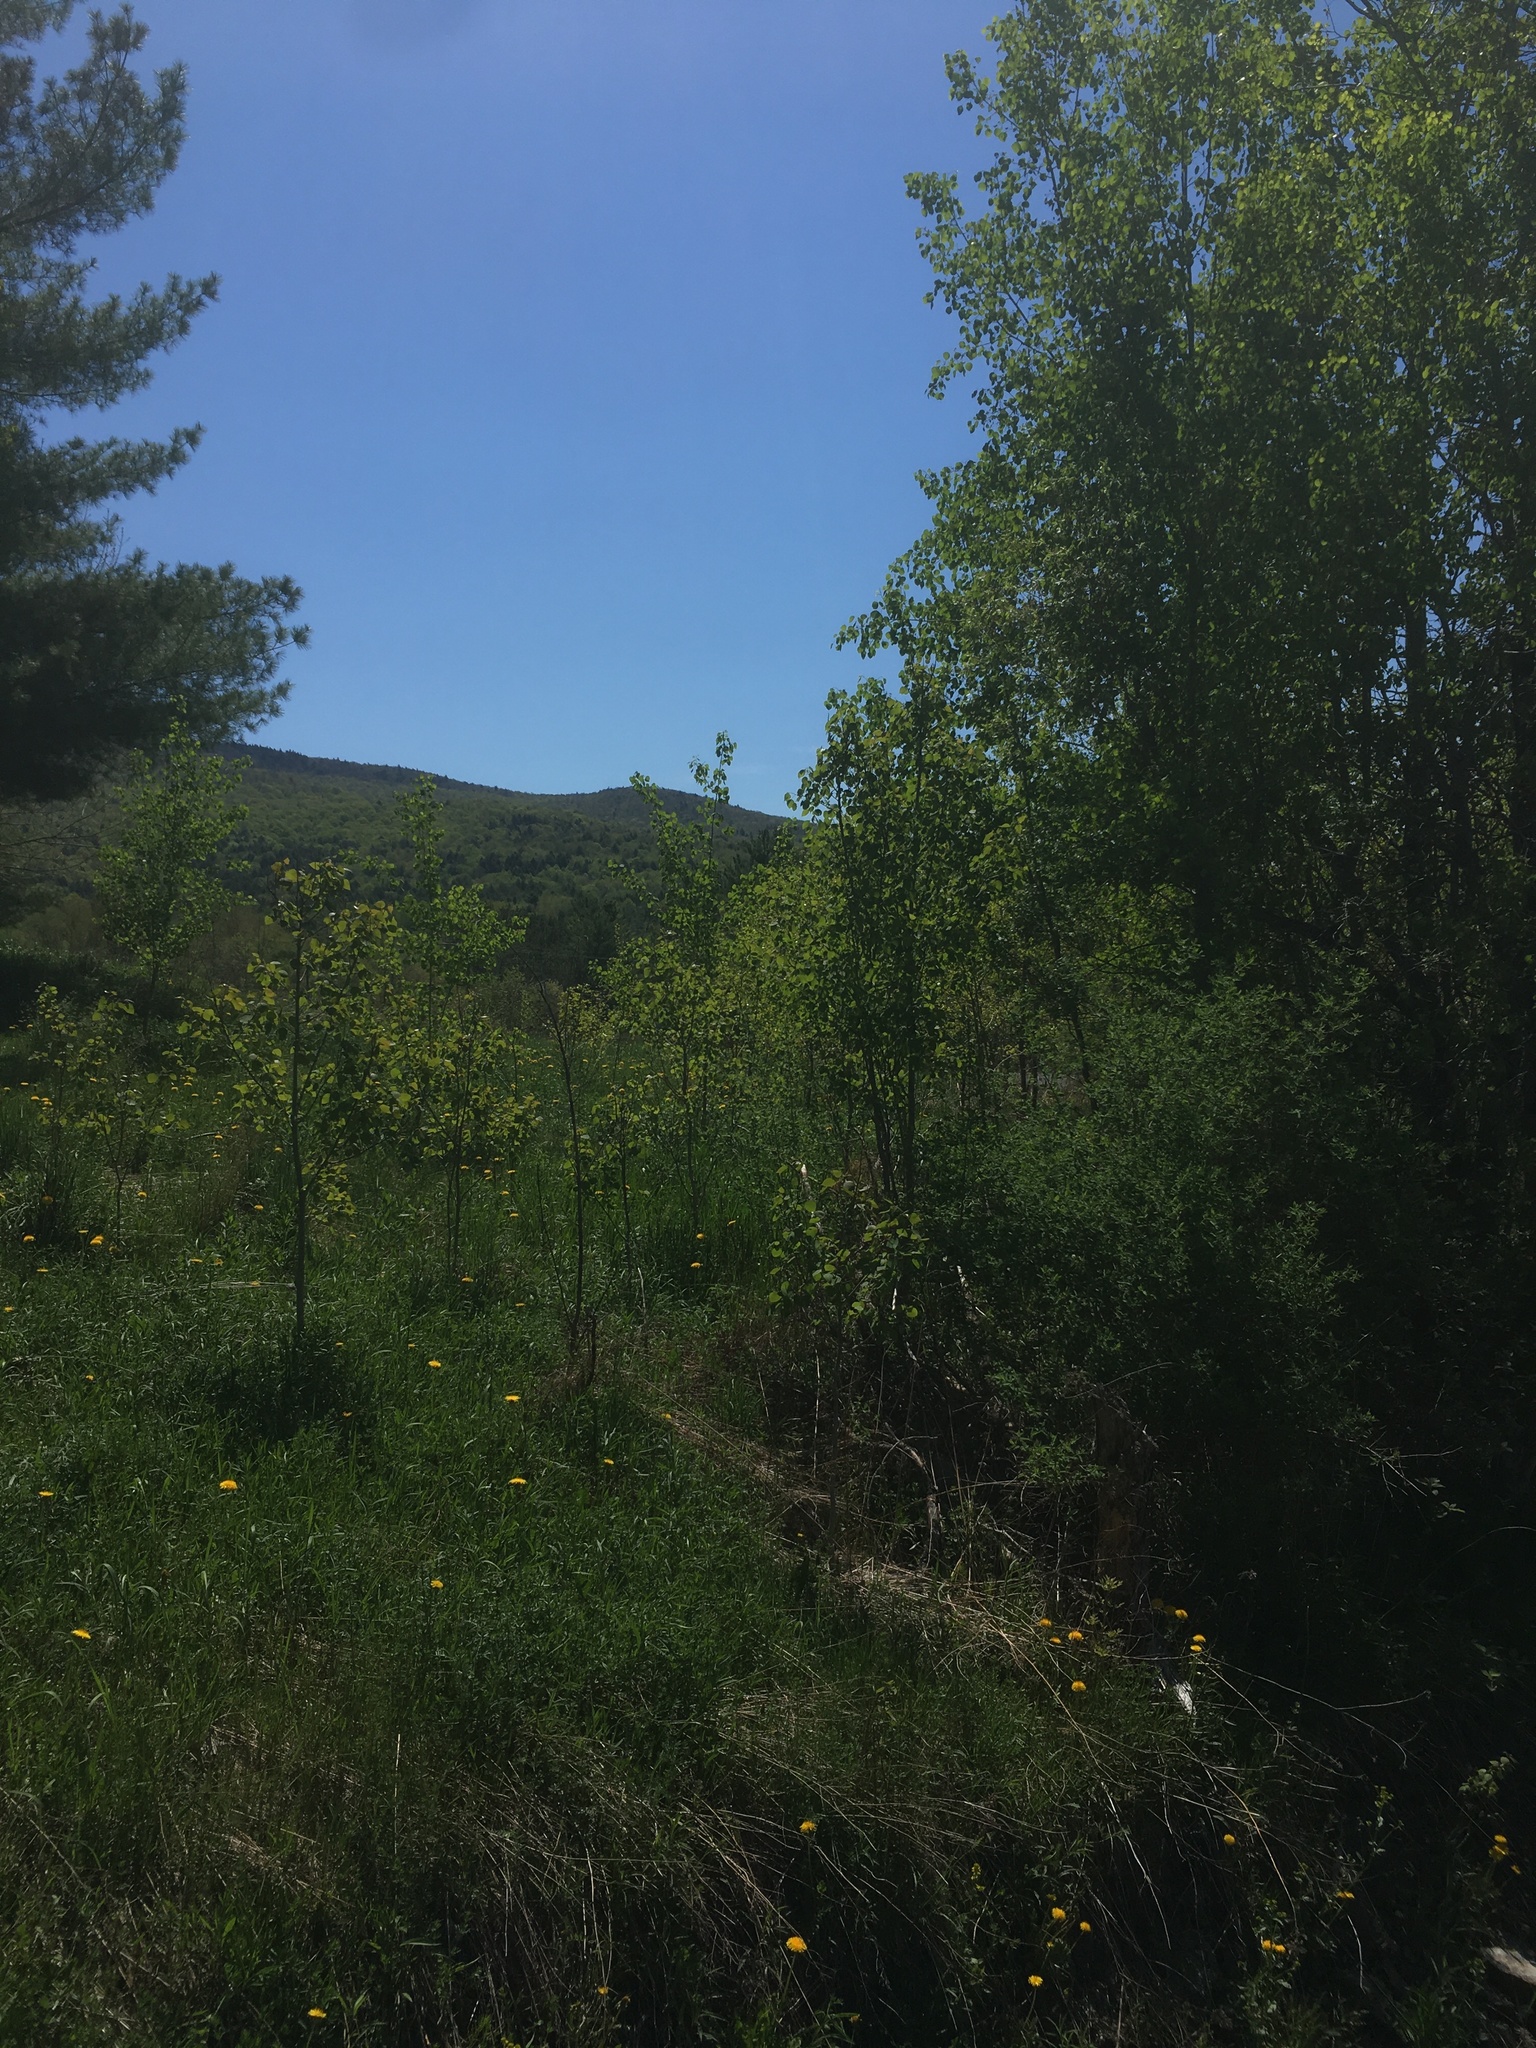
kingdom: Plantae
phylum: Tracheophyta
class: Magnoliopsida
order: Malpighiales
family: Salicaceae
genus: Populus
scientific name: Populus tremuloides
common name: Quaking aspen
